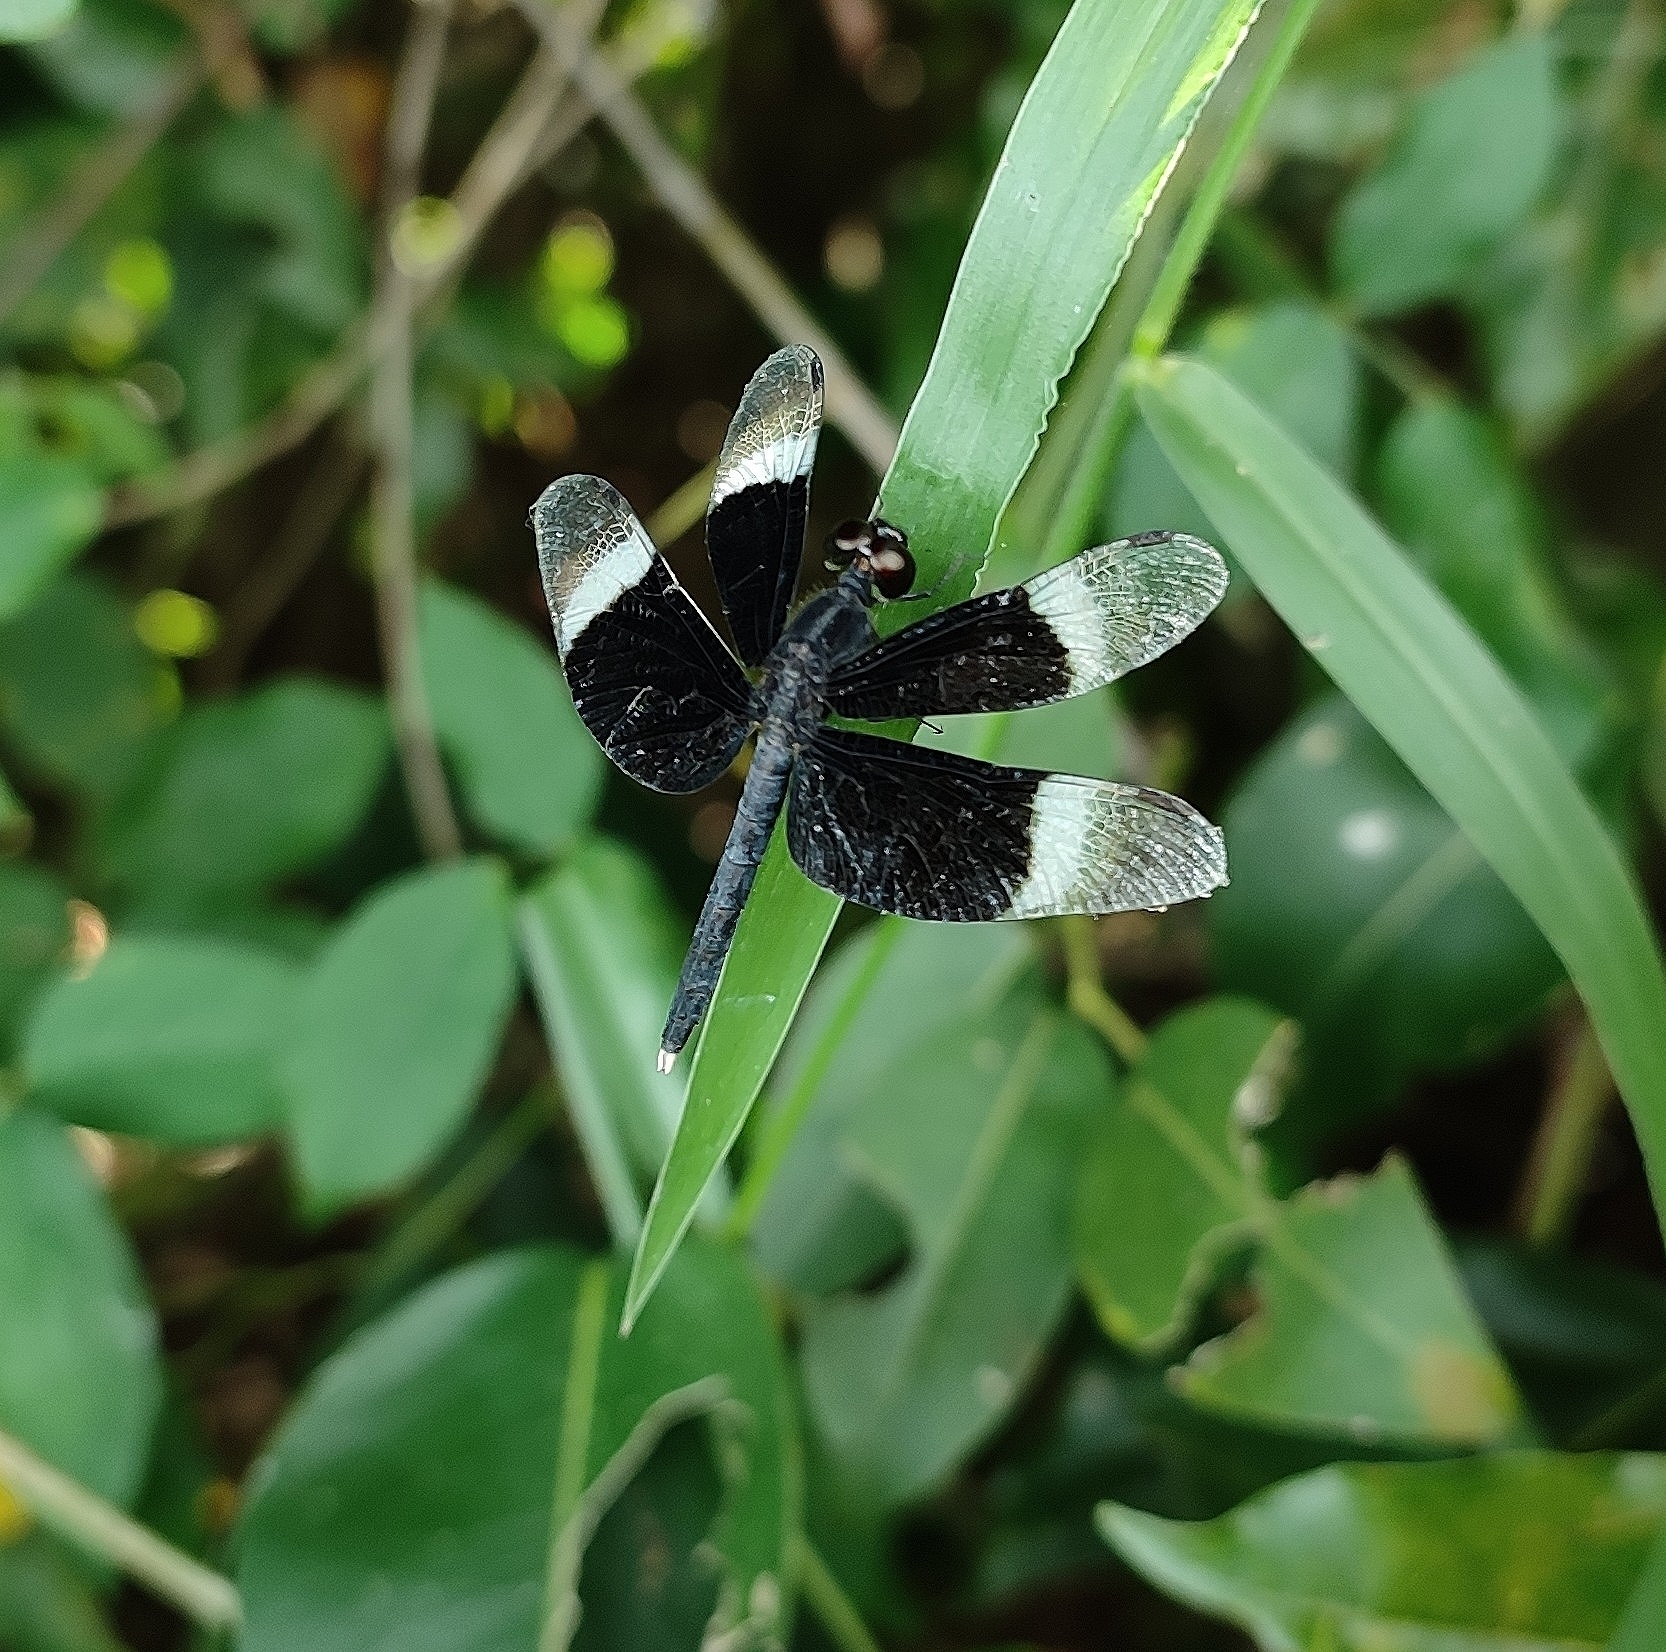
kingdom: Animalia
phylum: Arthropoda
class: Insecta
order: Odonata
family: Libellulidae
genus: Neurothemis
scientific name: Neurothemis tullia
